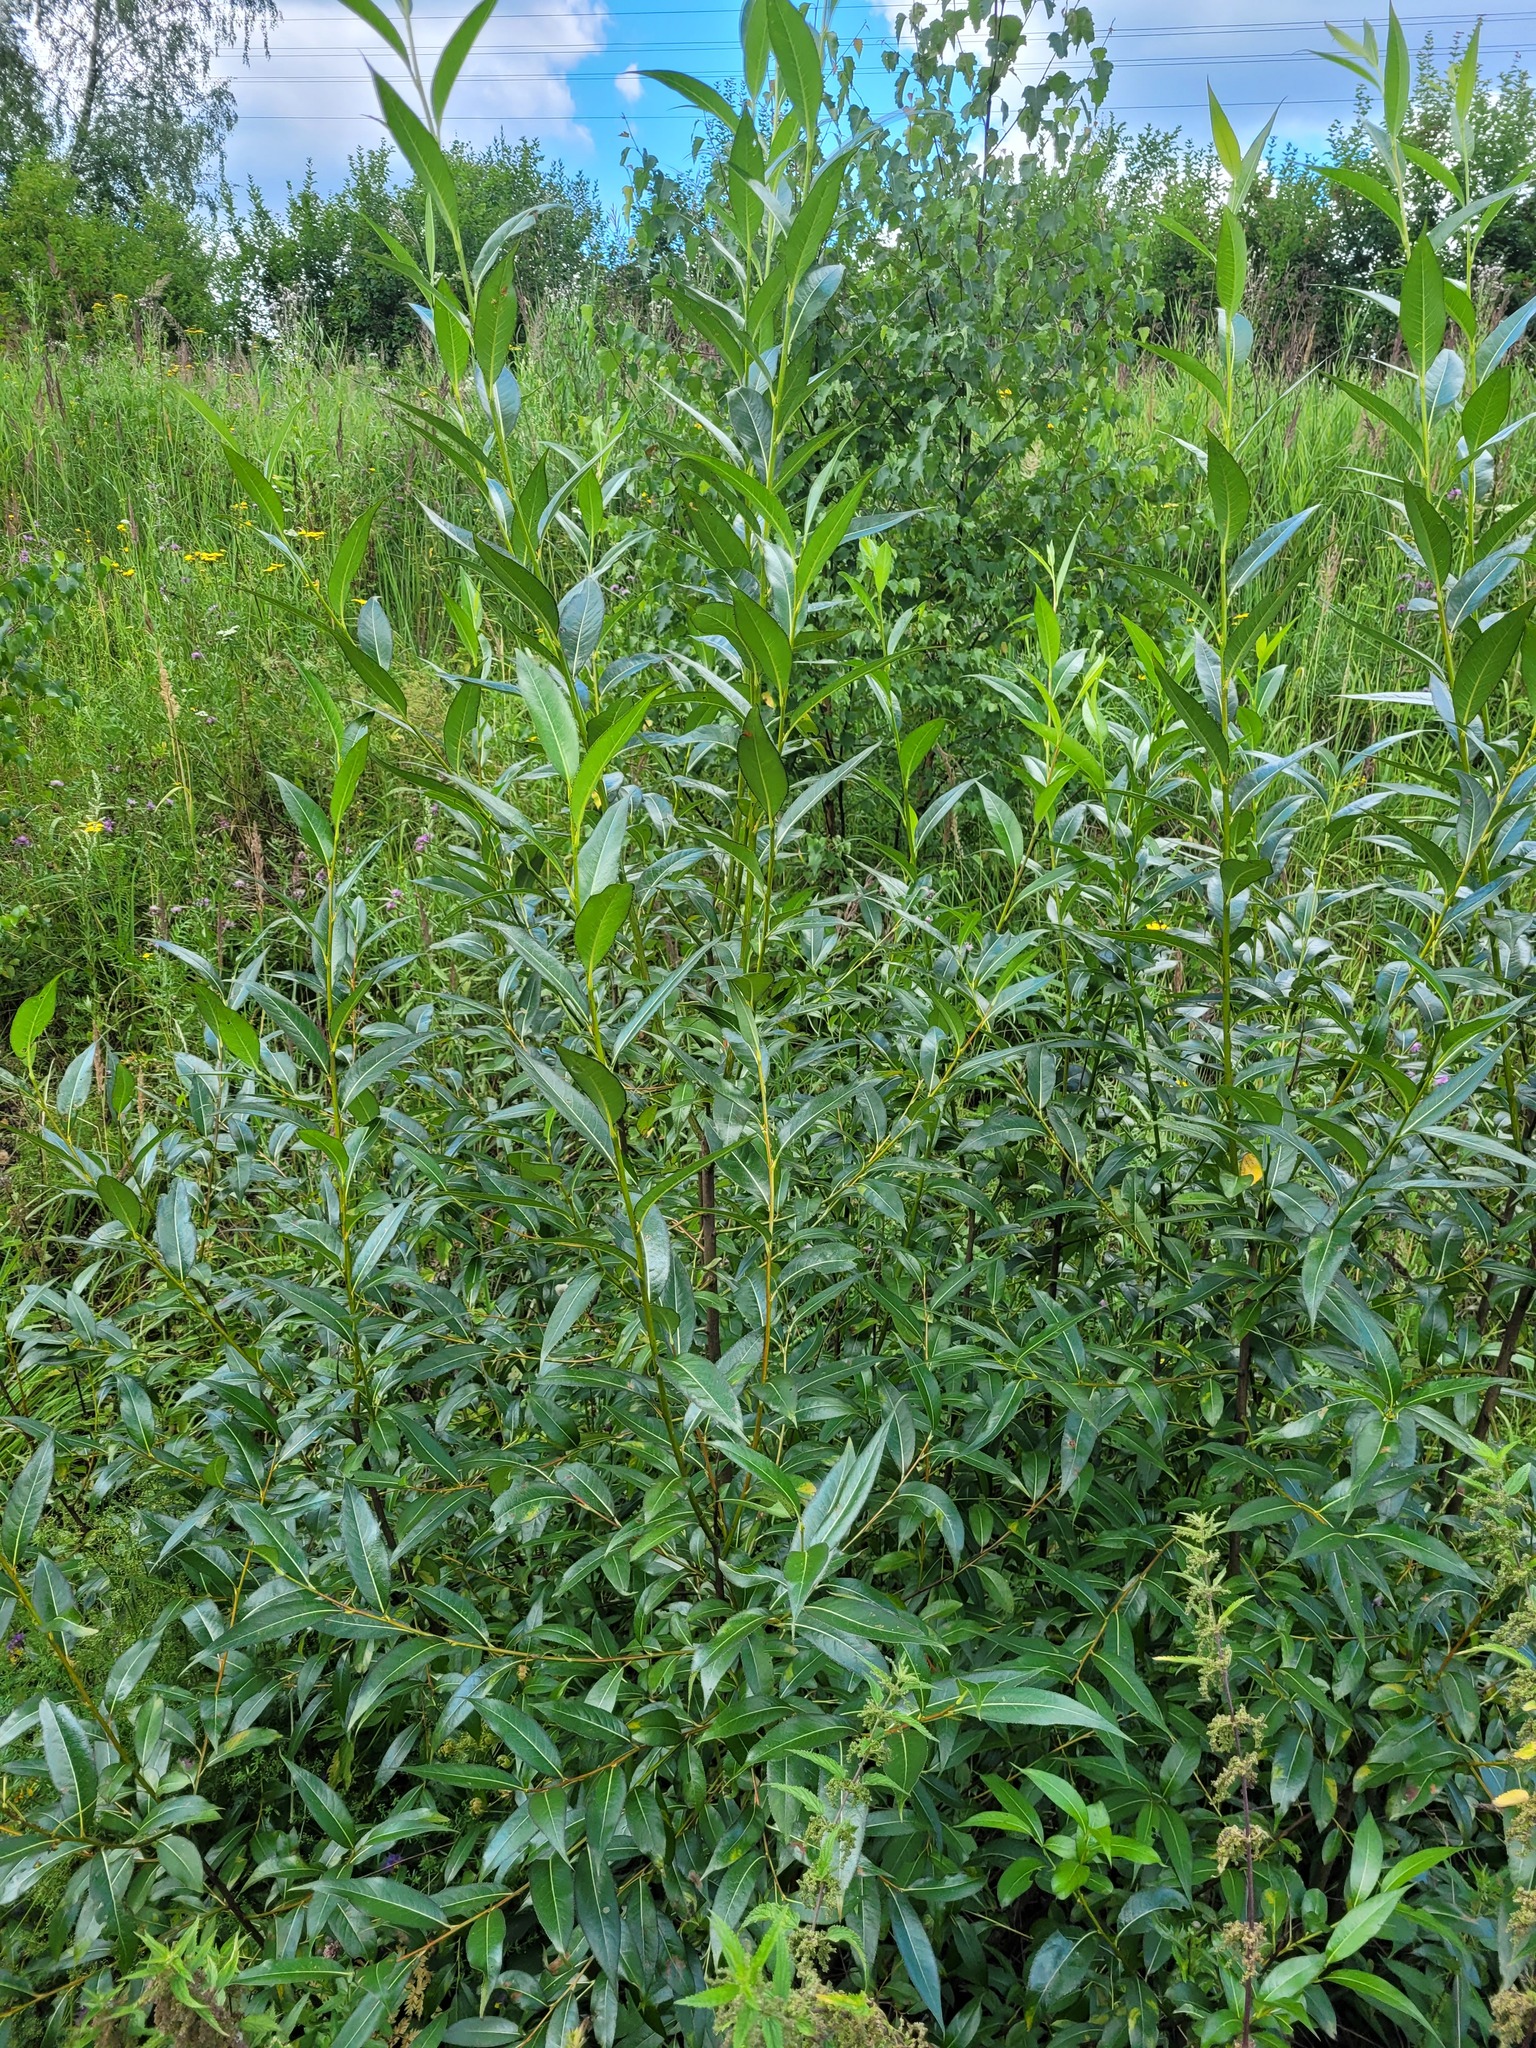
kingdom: Plantae
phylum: Tracheophyta
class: Magnoliopsida
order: Malpighiales
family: Salicaceae
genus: Salix
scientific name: Salix pentandra
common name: Bay willow
